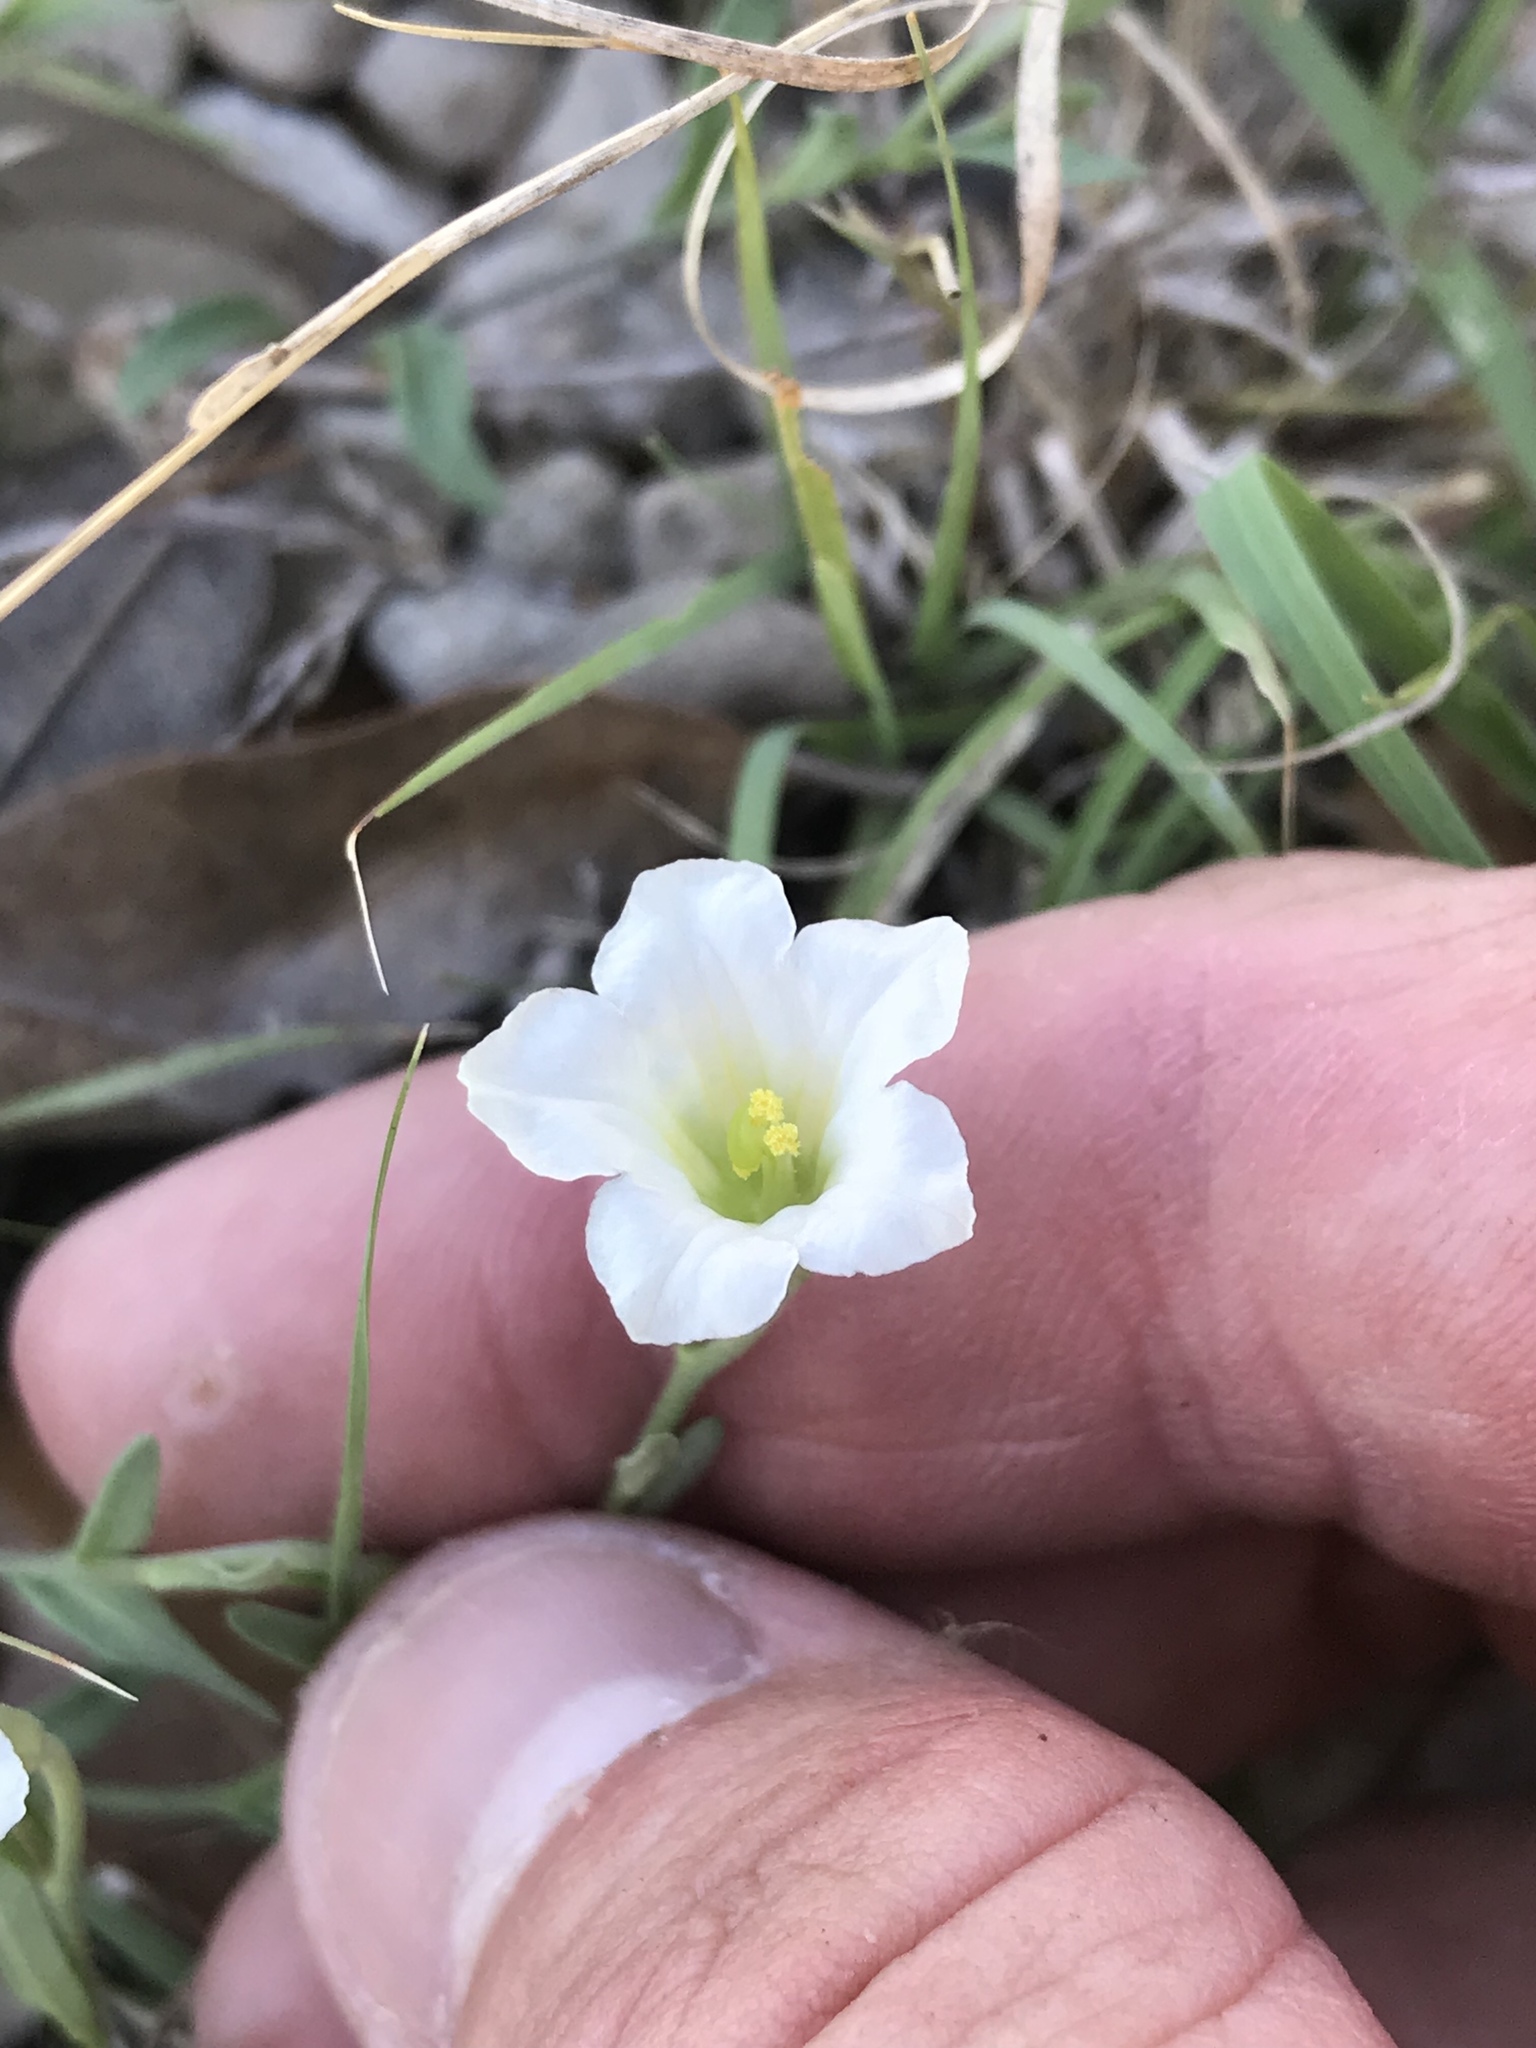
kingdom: Plantae
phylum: Tracheophyta
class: Magnoliopsida
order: Solanales
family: Solanaceae
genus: Salpiglossis
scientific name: Salpiglossis erecta
